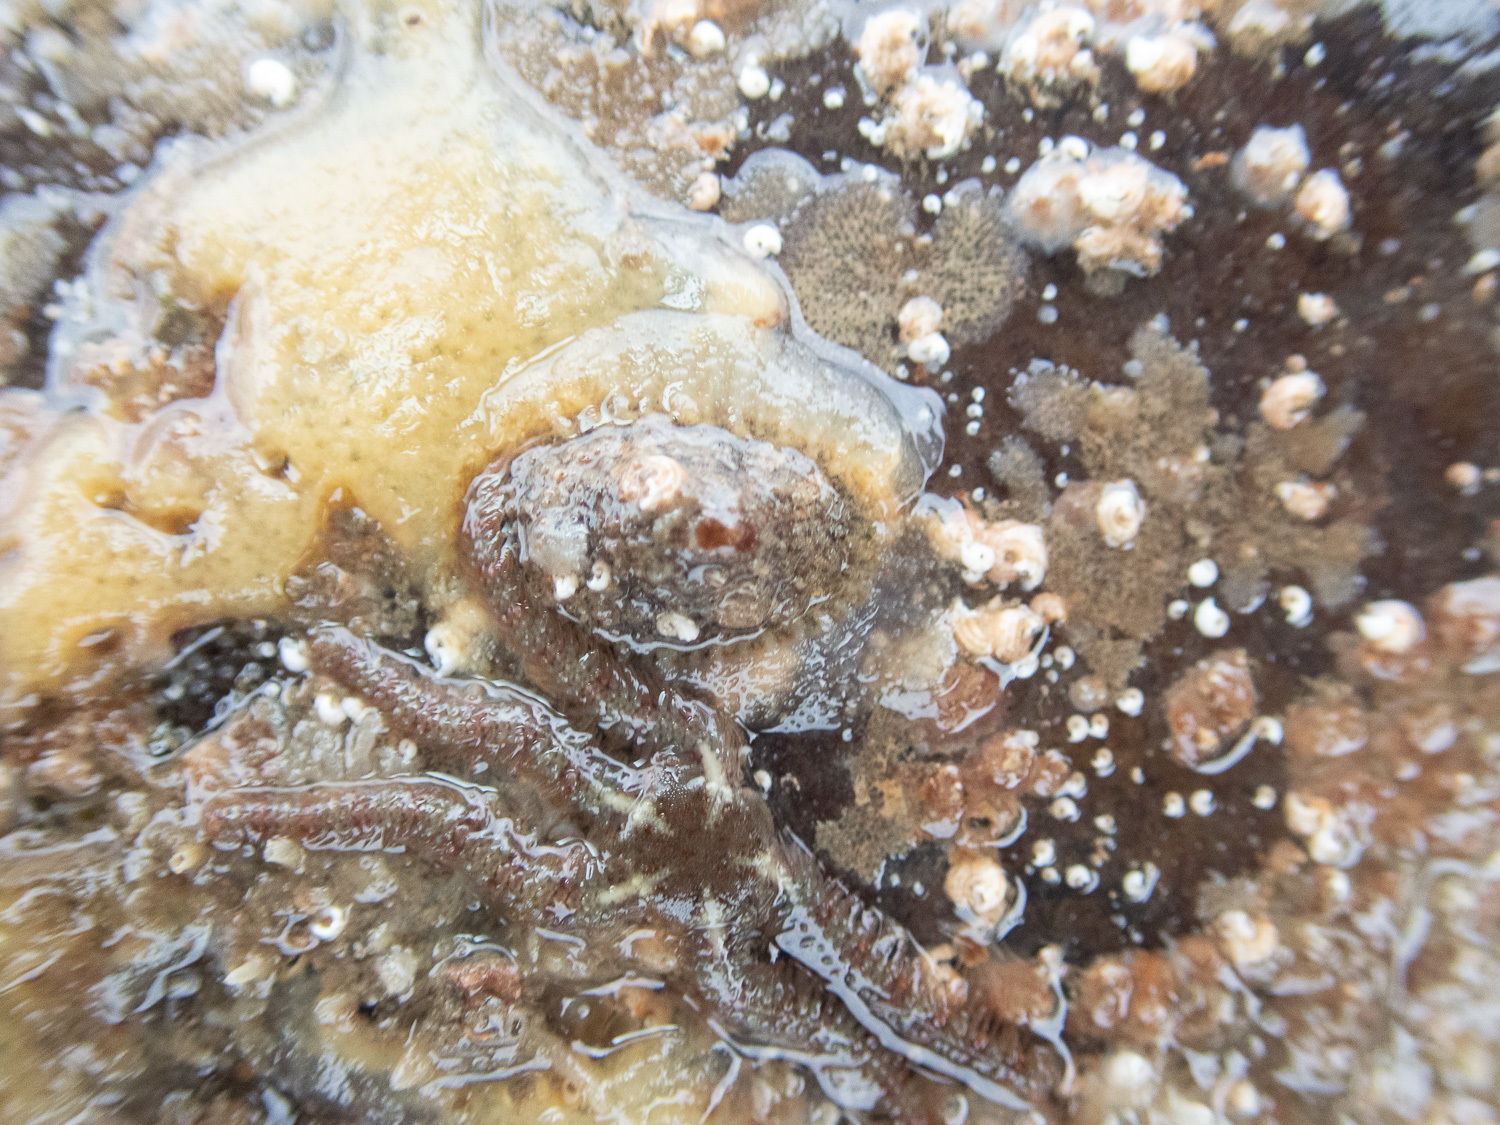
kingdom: Animalia
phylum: Mollusca
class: Gastropoda
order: Lepetellida
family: Fissurellidae
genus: Diodora
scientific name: Diodora graeca
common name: Common keyhole limpet
